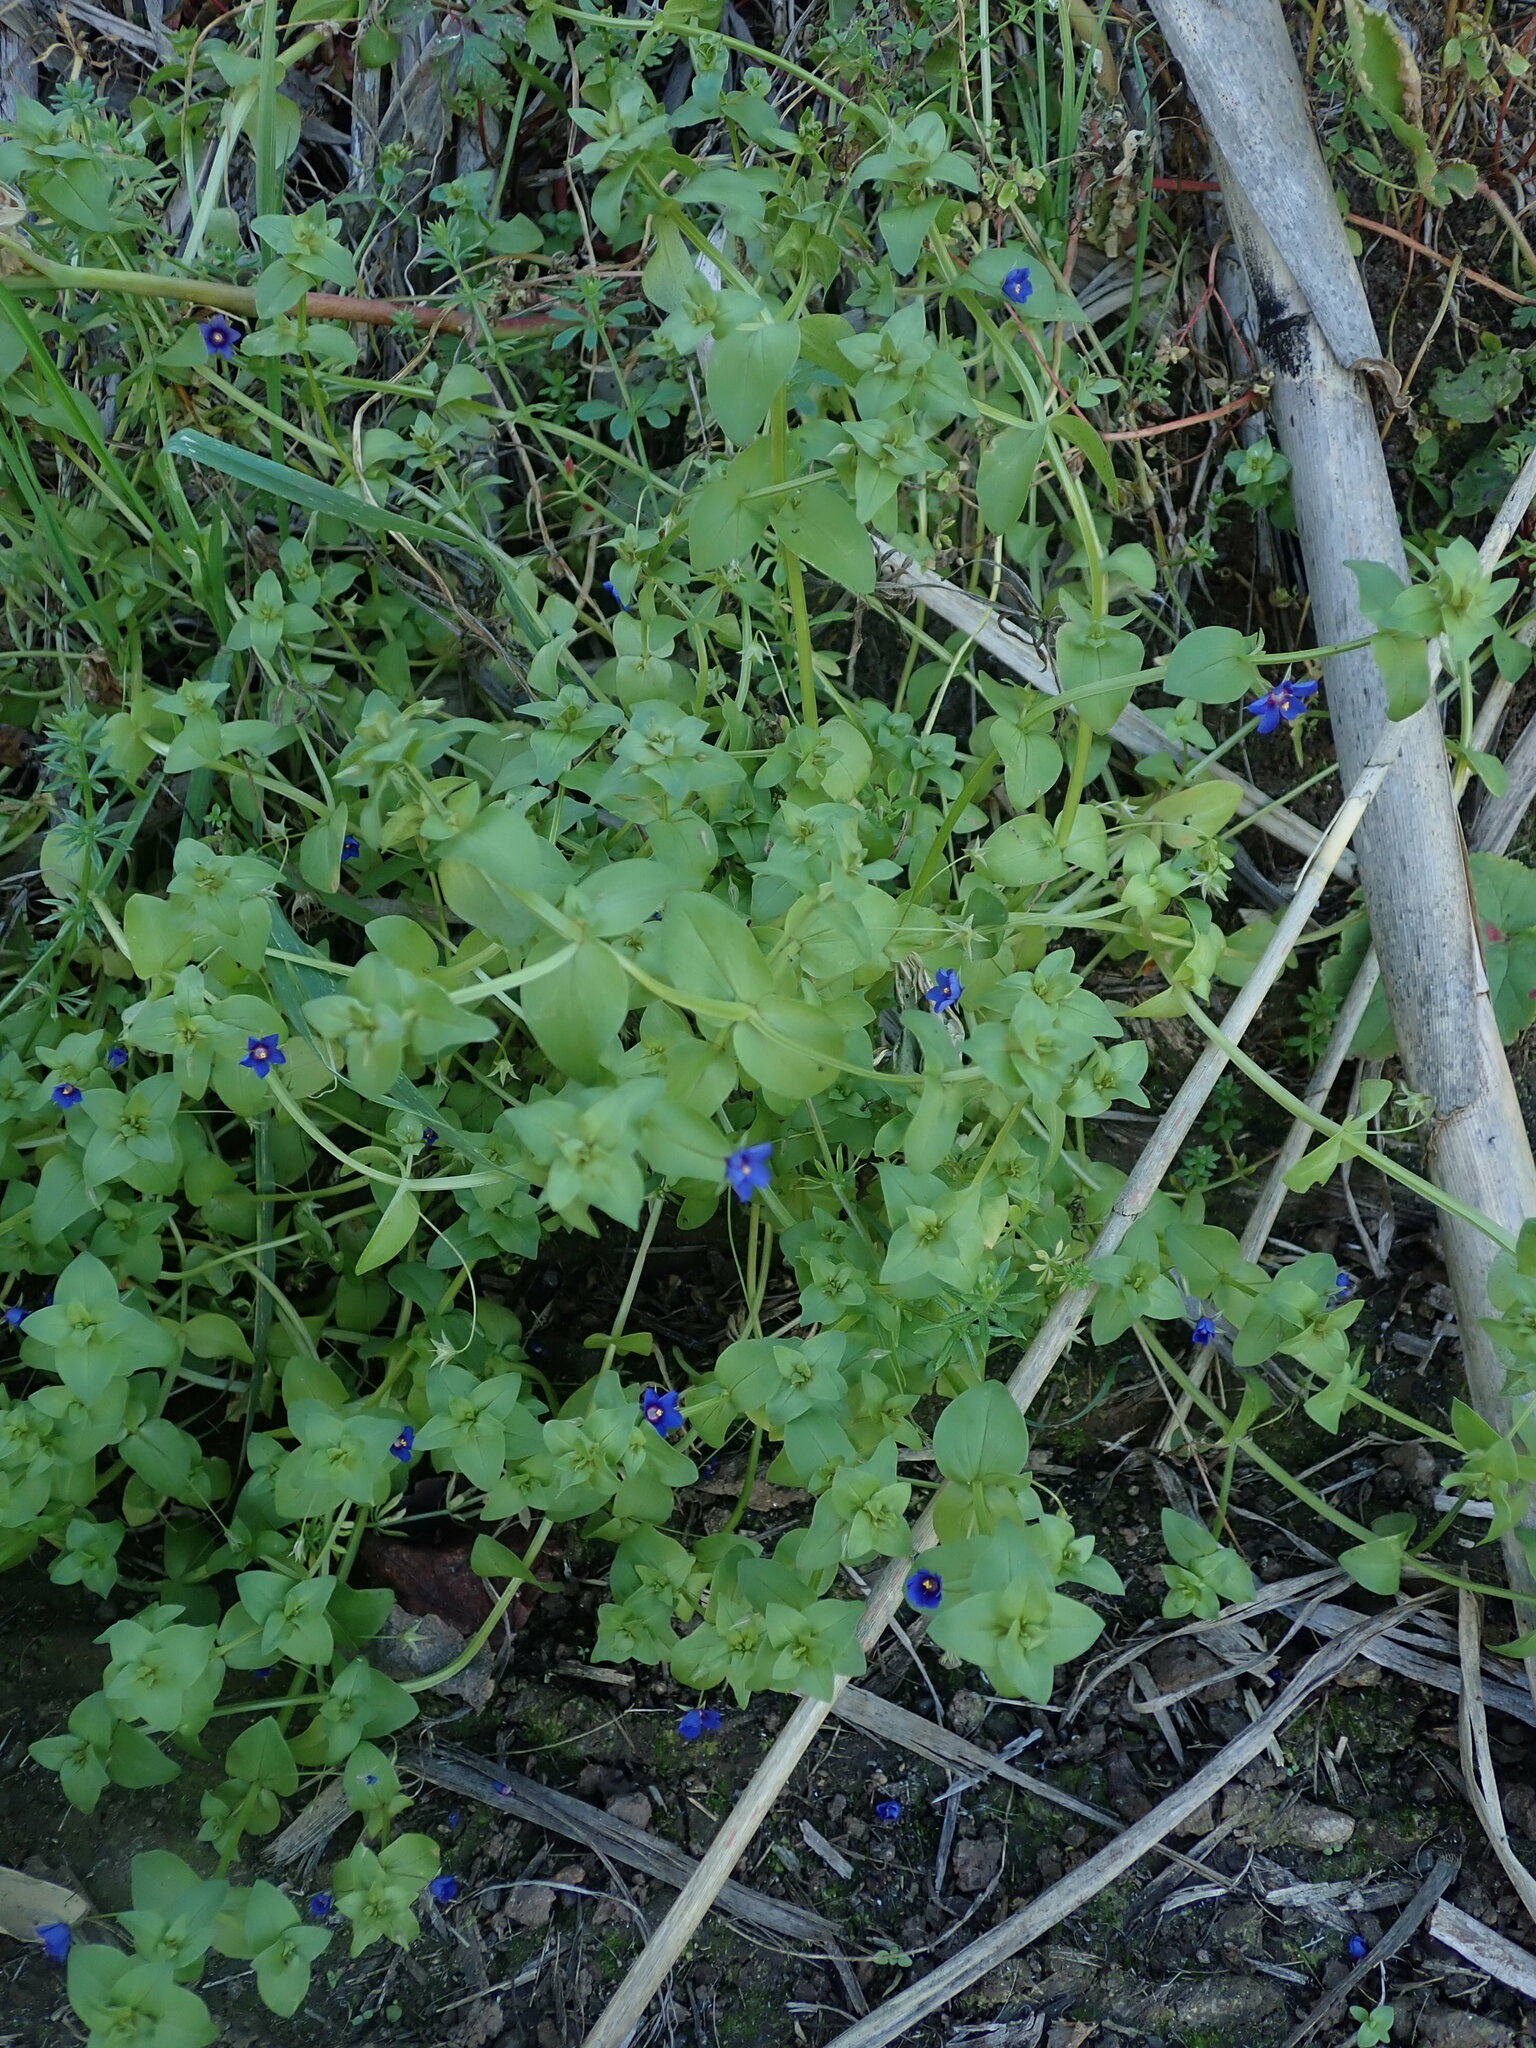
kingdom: Plantae
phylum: Tracheophyta
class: Magnoliopsida
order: Ericales
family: Primulaceae
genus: Lysimachia
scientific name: Lysimachia loeflingii
